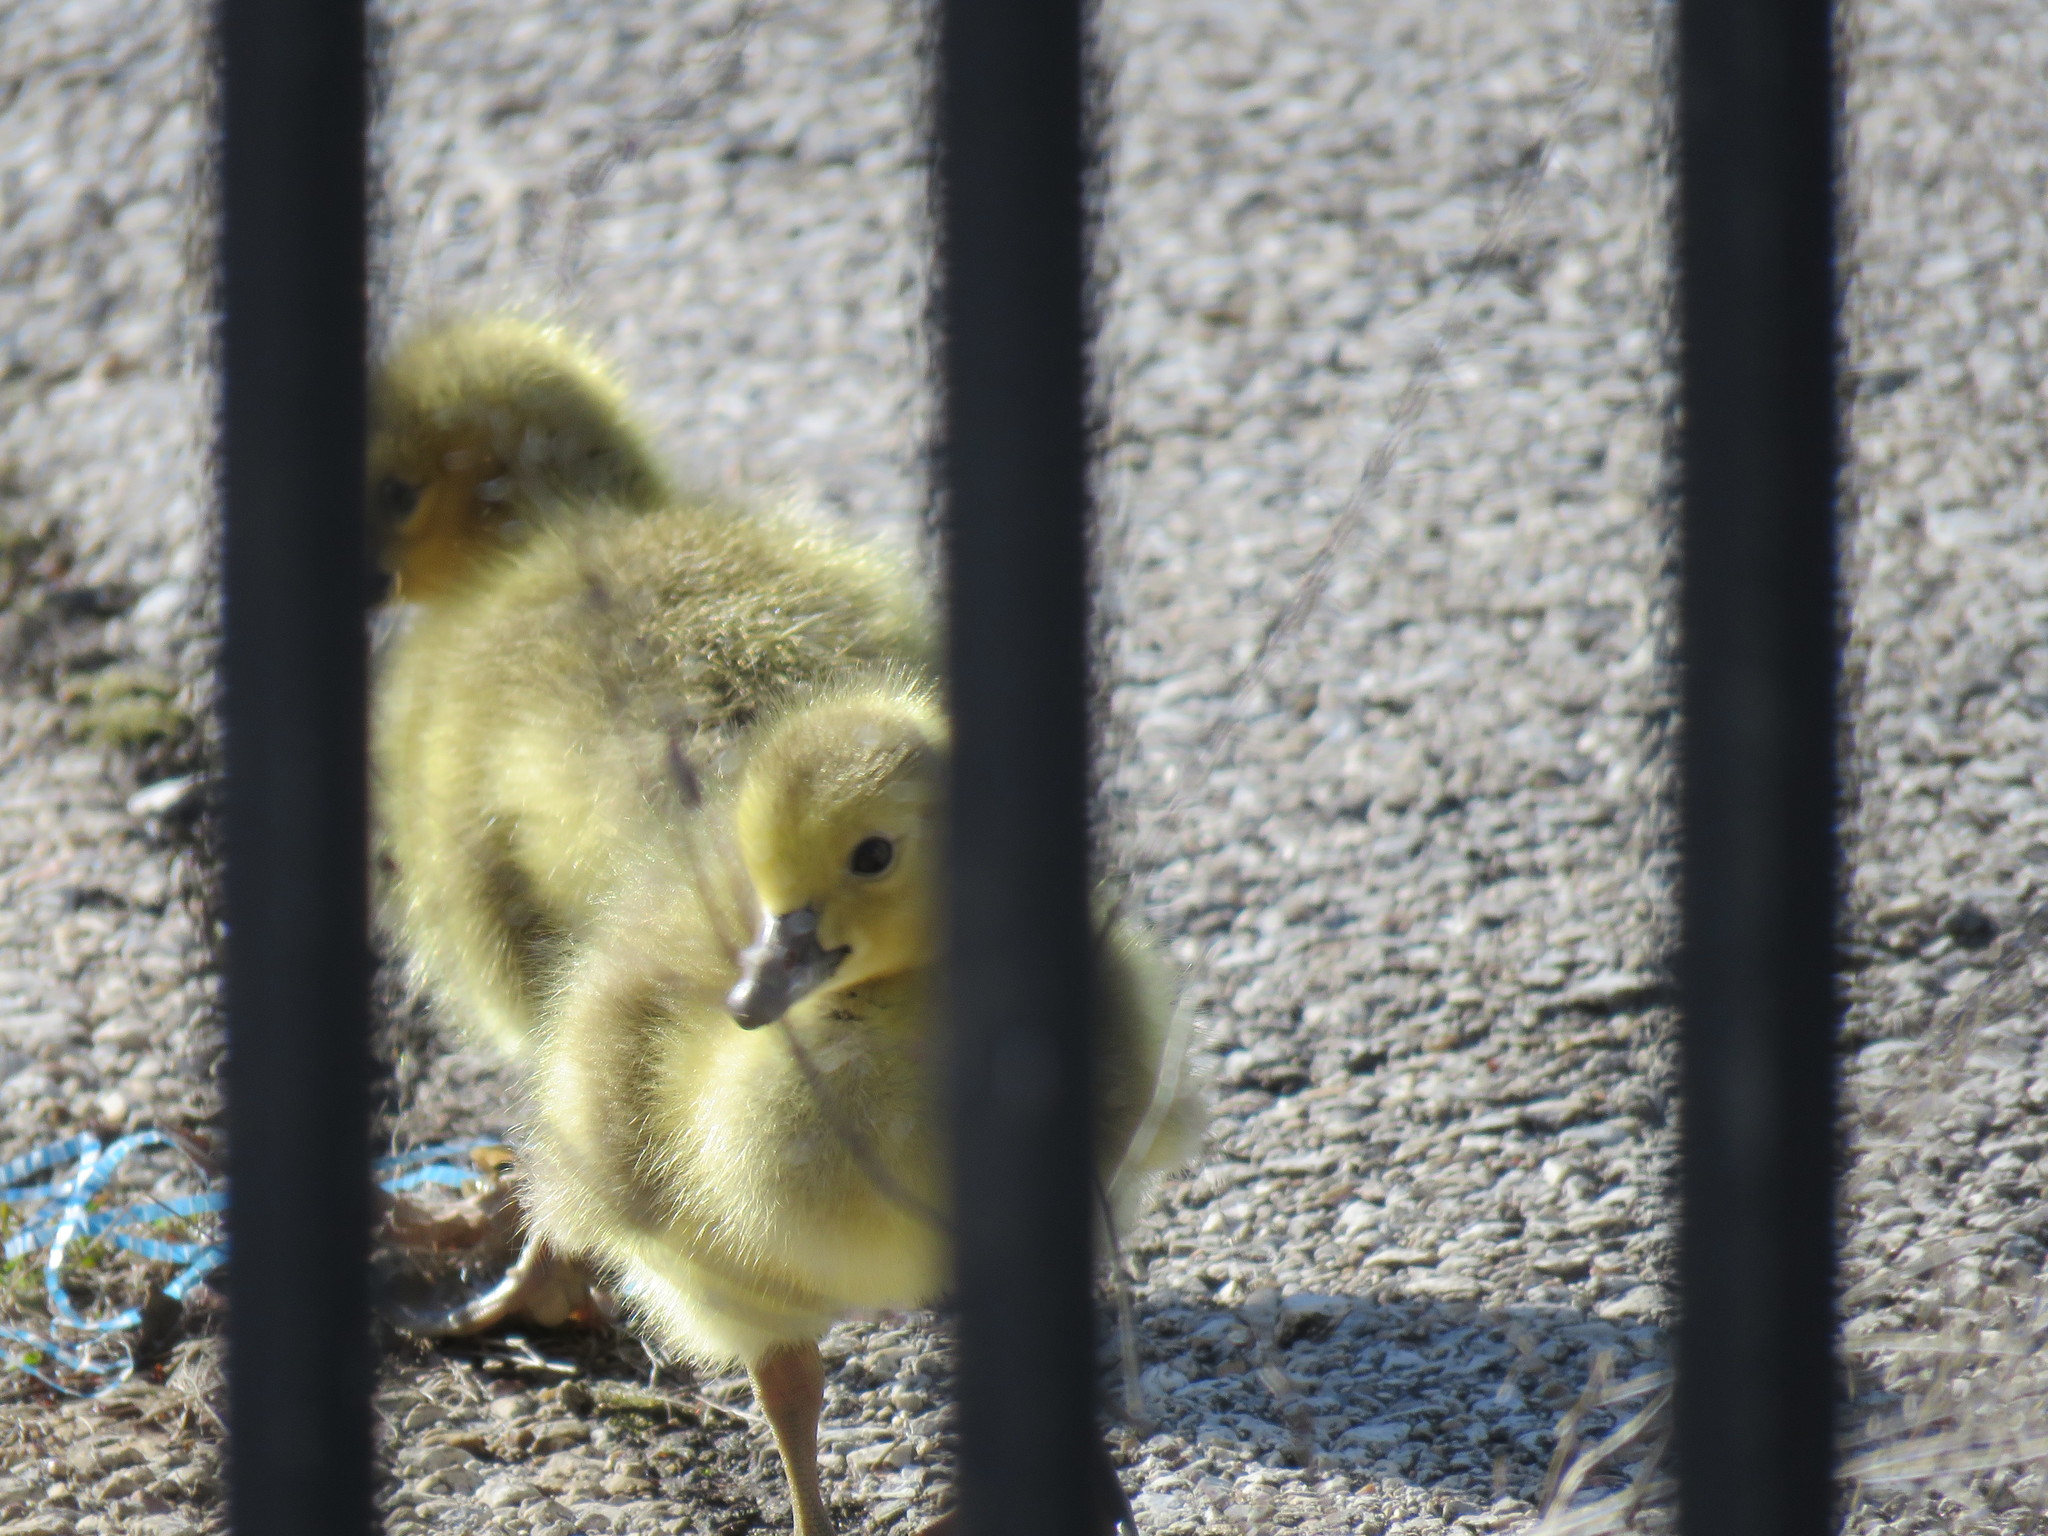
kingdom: Animalia
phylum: Chordata
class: Aves
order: Anseriformes
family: Anatidae
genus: Branta
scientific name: Branta canadensis
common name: Canada goose
